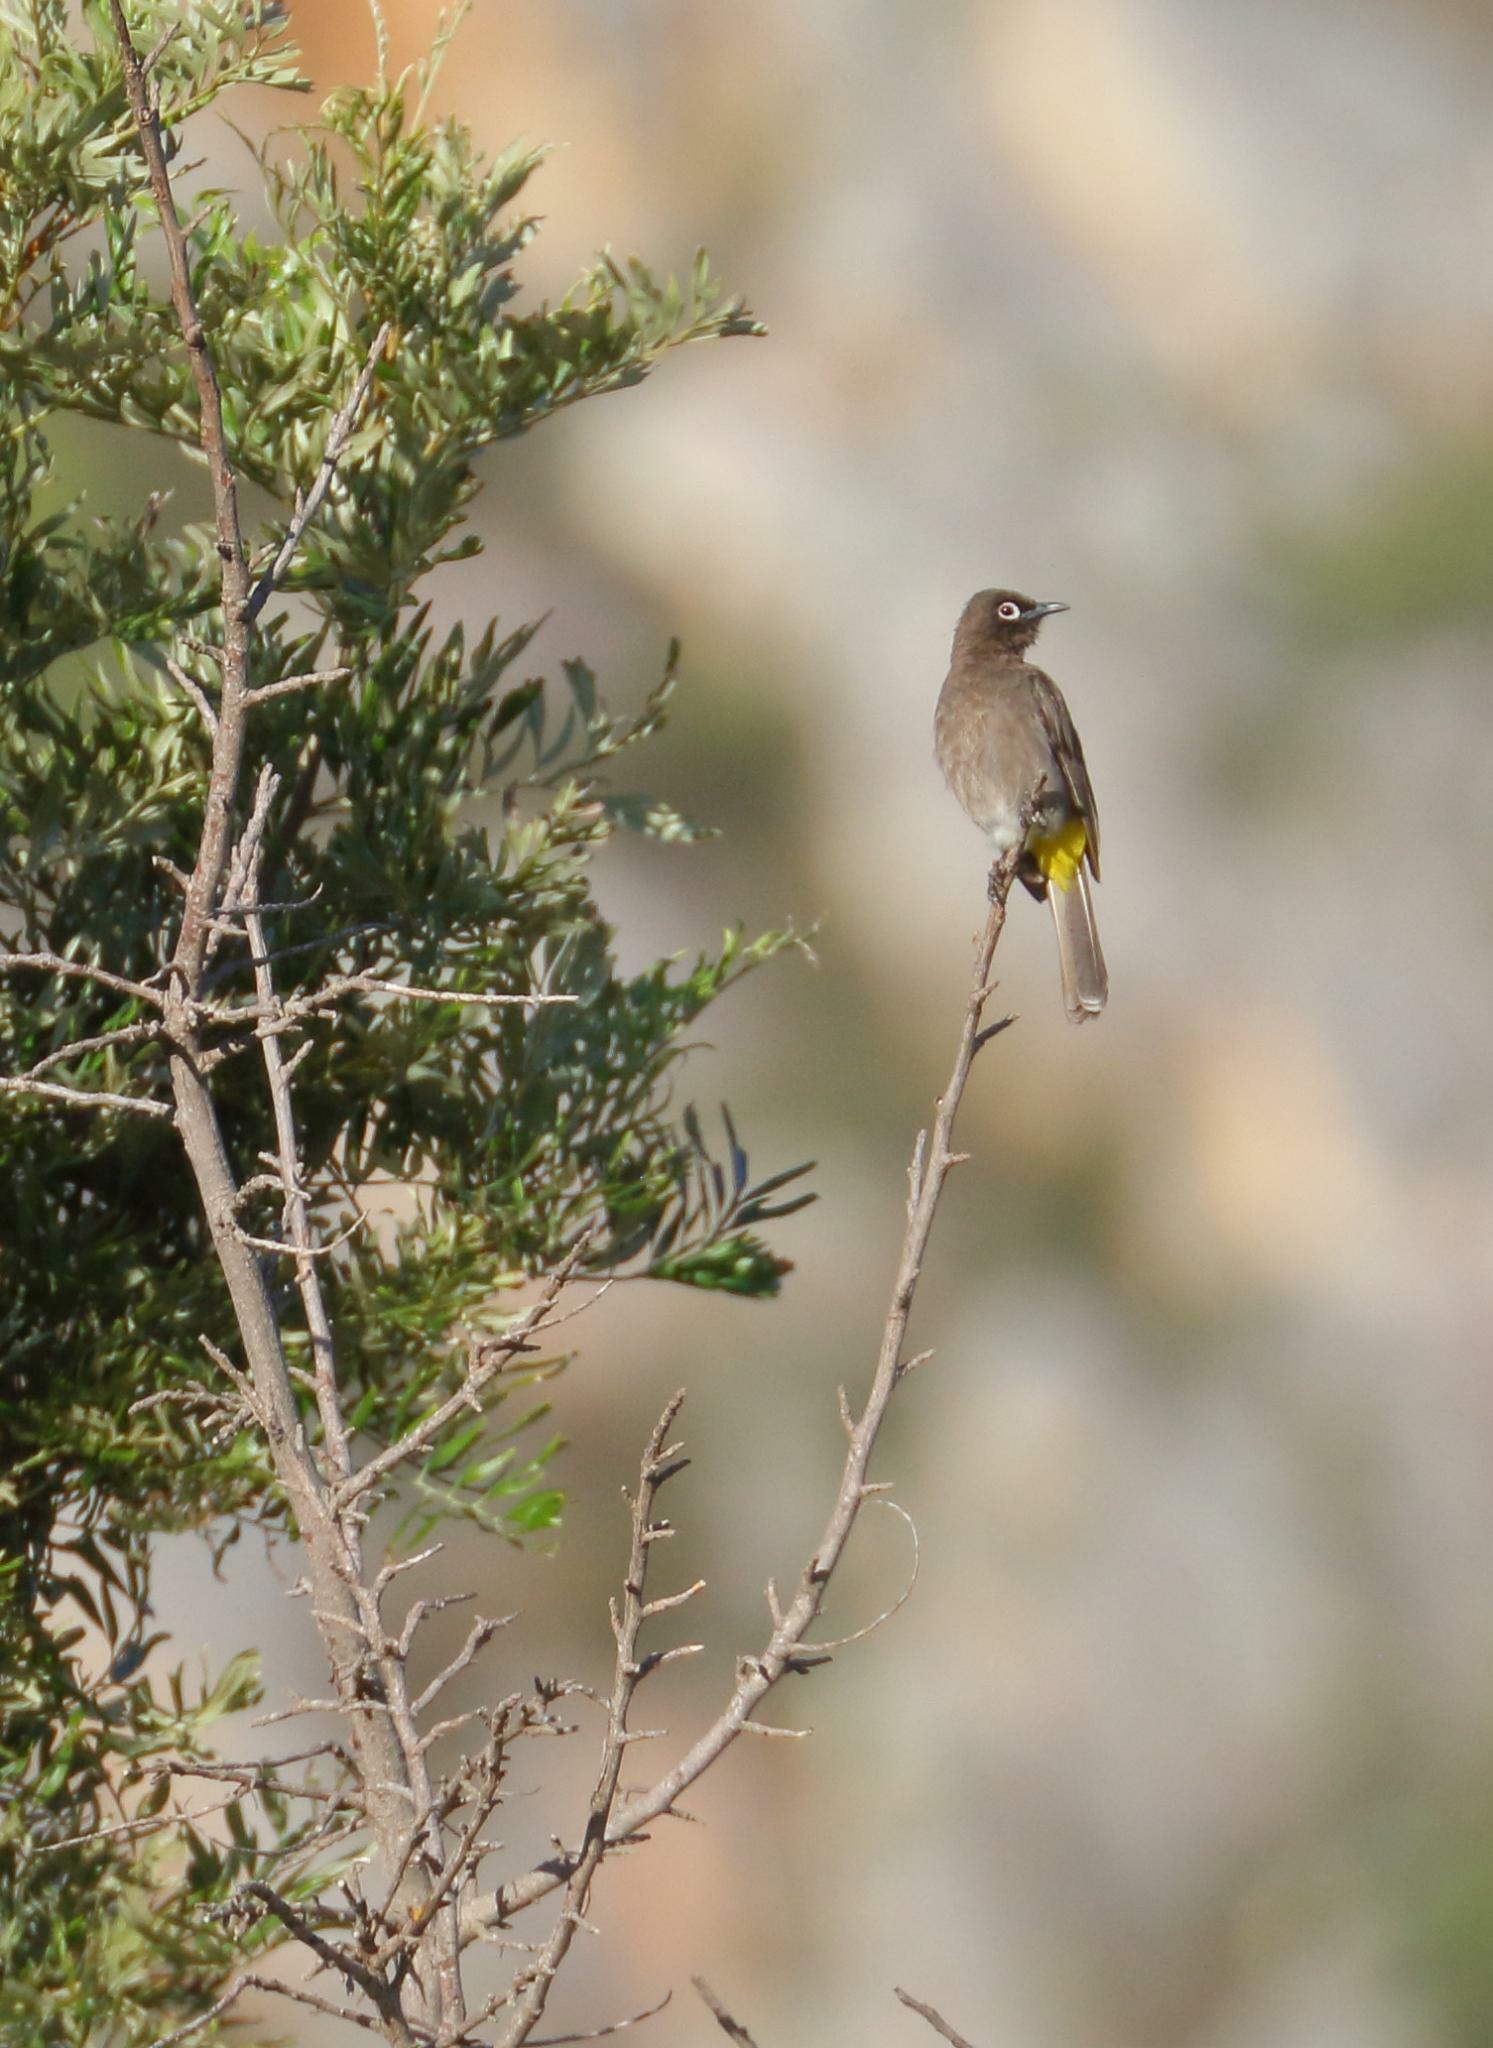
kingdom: Animalia
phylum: Chordata
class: Aves
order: Passeriformes
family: Pycnonotidae
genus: Pycnonotus
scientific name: Pycnonotus capensis
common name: Cape bulbul
